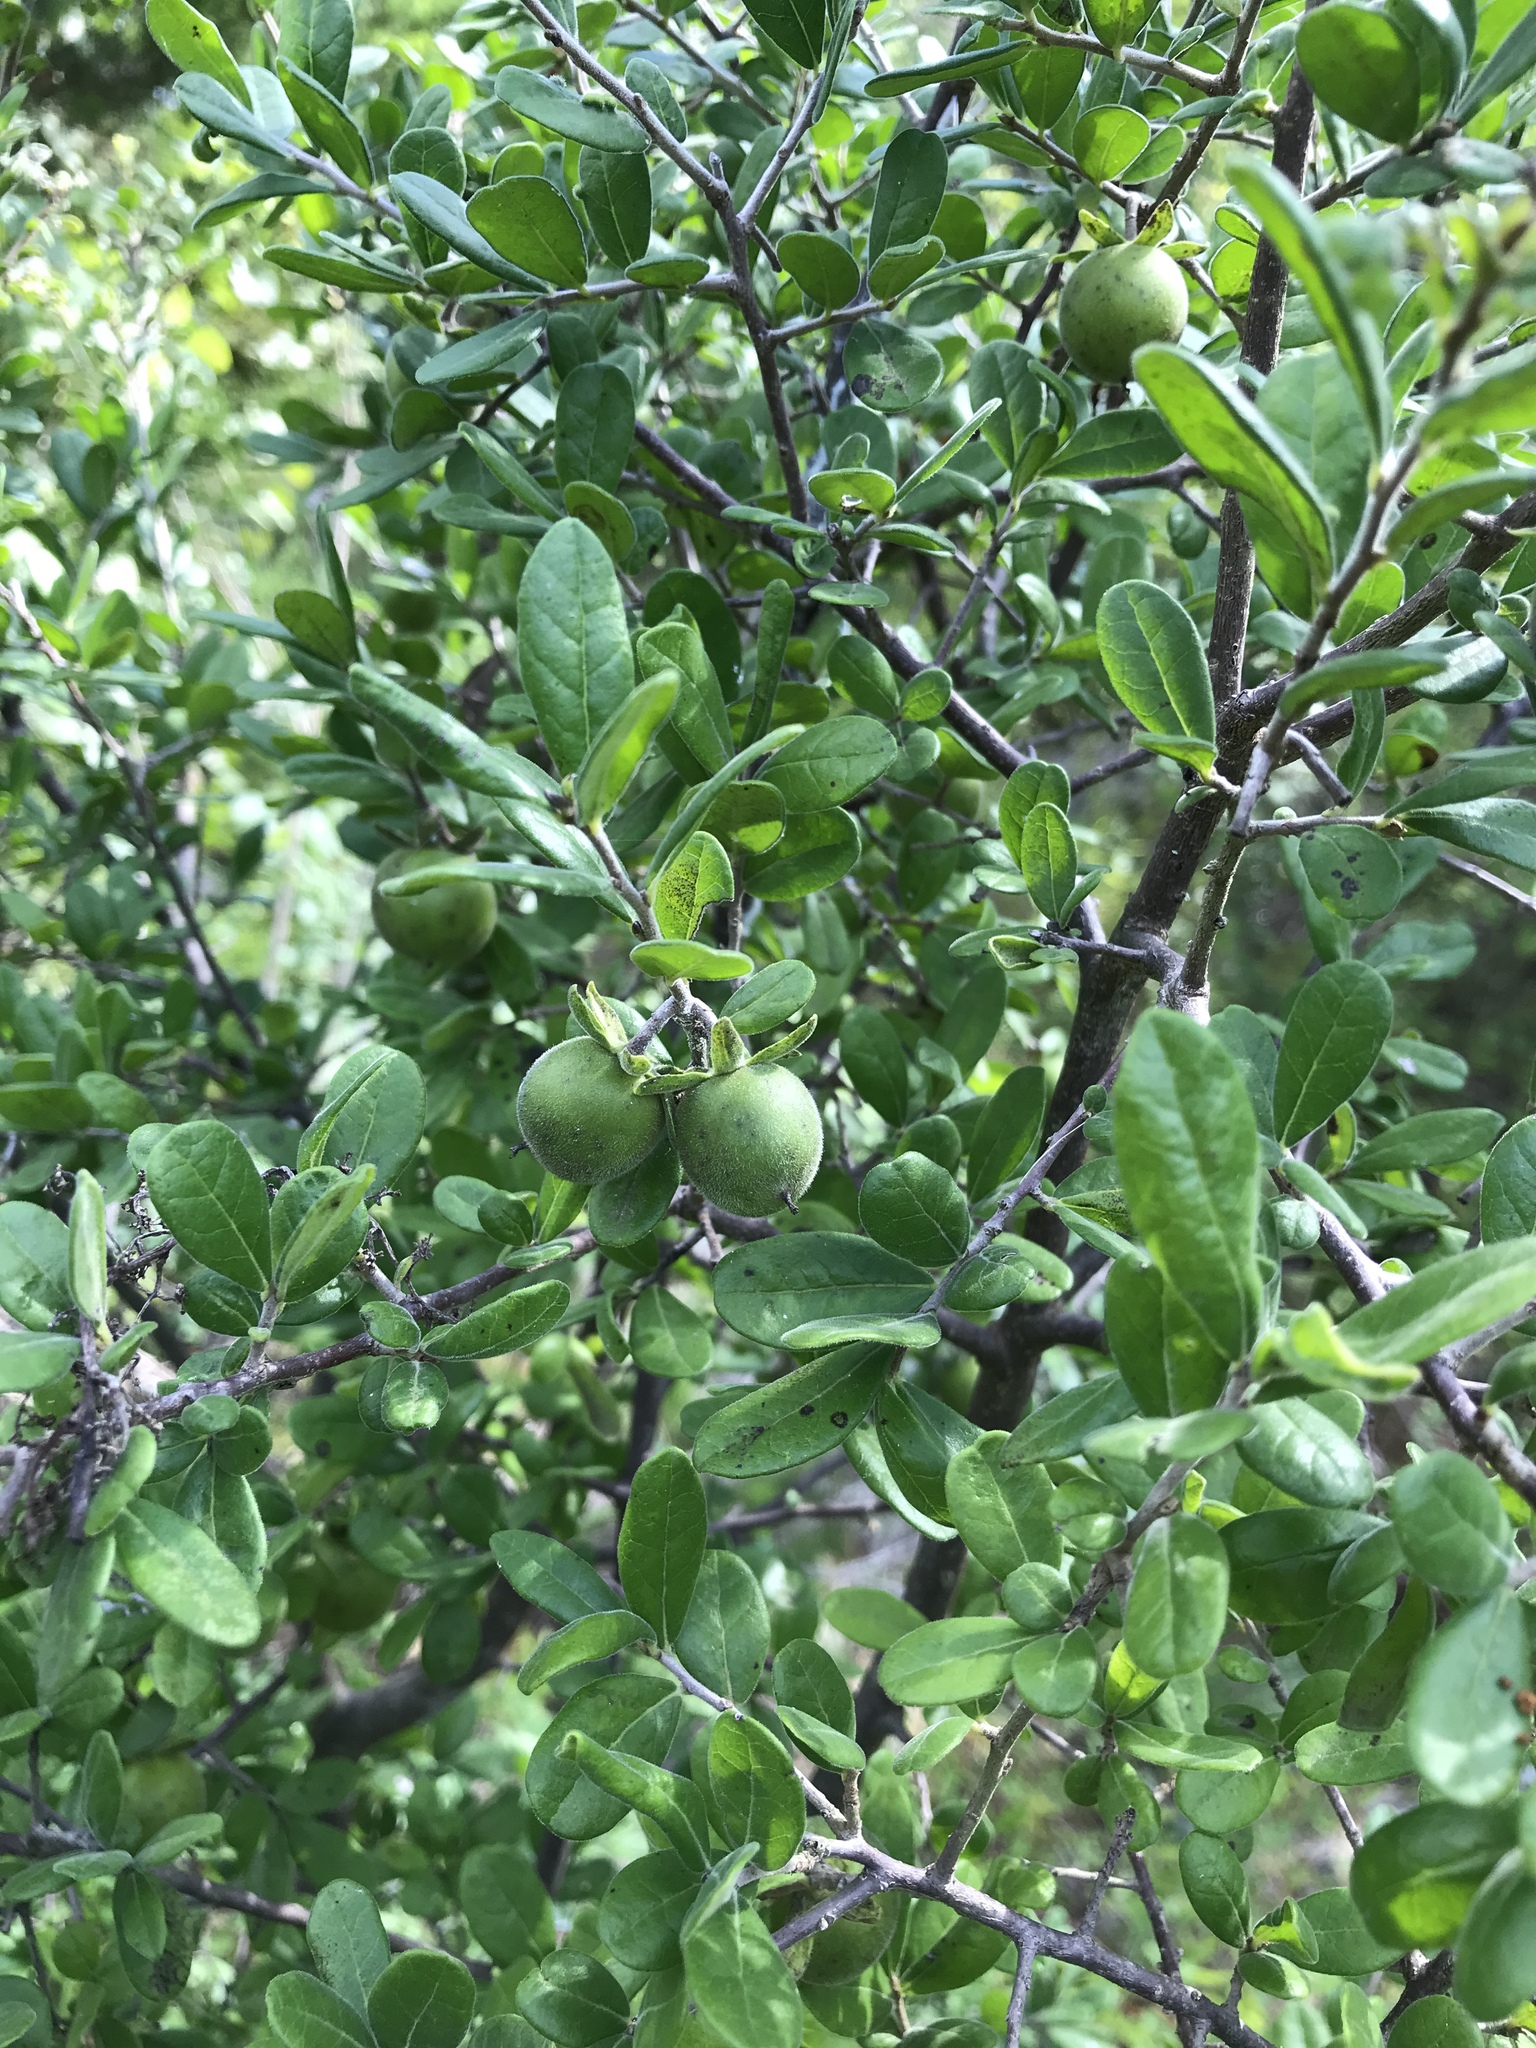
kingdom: Plantae
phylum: Tracheophyta
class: Magnoliopsida
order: Ericales
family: Ebenaceae
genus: Diospyros
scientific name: Diospyros texana
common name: Texas persimmon
